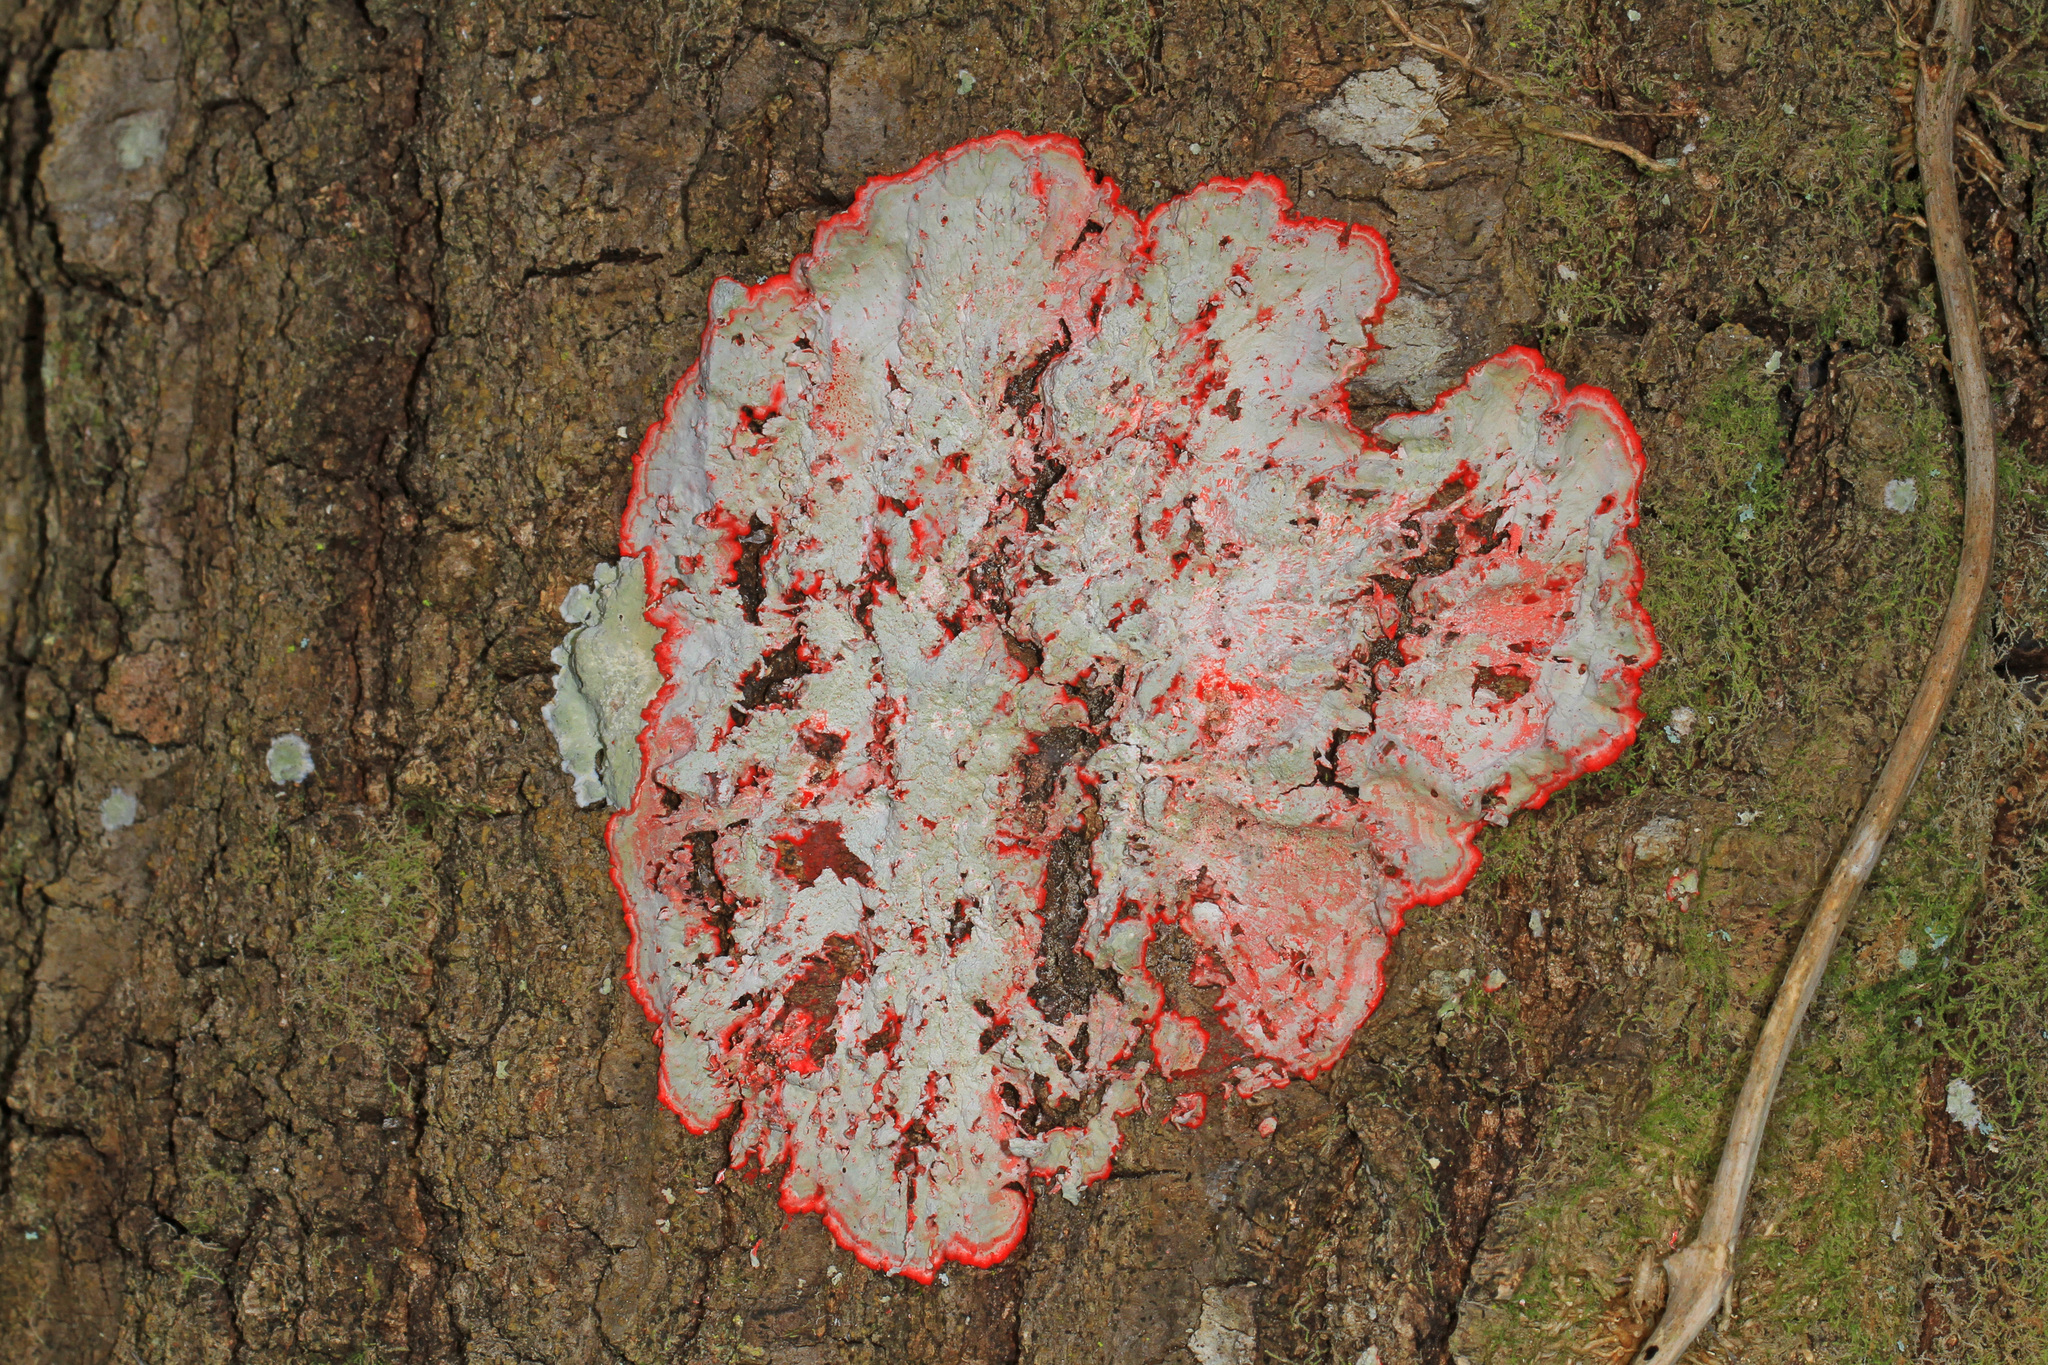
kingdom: Fungi
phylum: Ascomycota
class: Arthoniomycetes
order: Arthoniales
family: Arthoniaceae
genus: Herpothallon
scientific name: Herpothallon rubrocinctum
